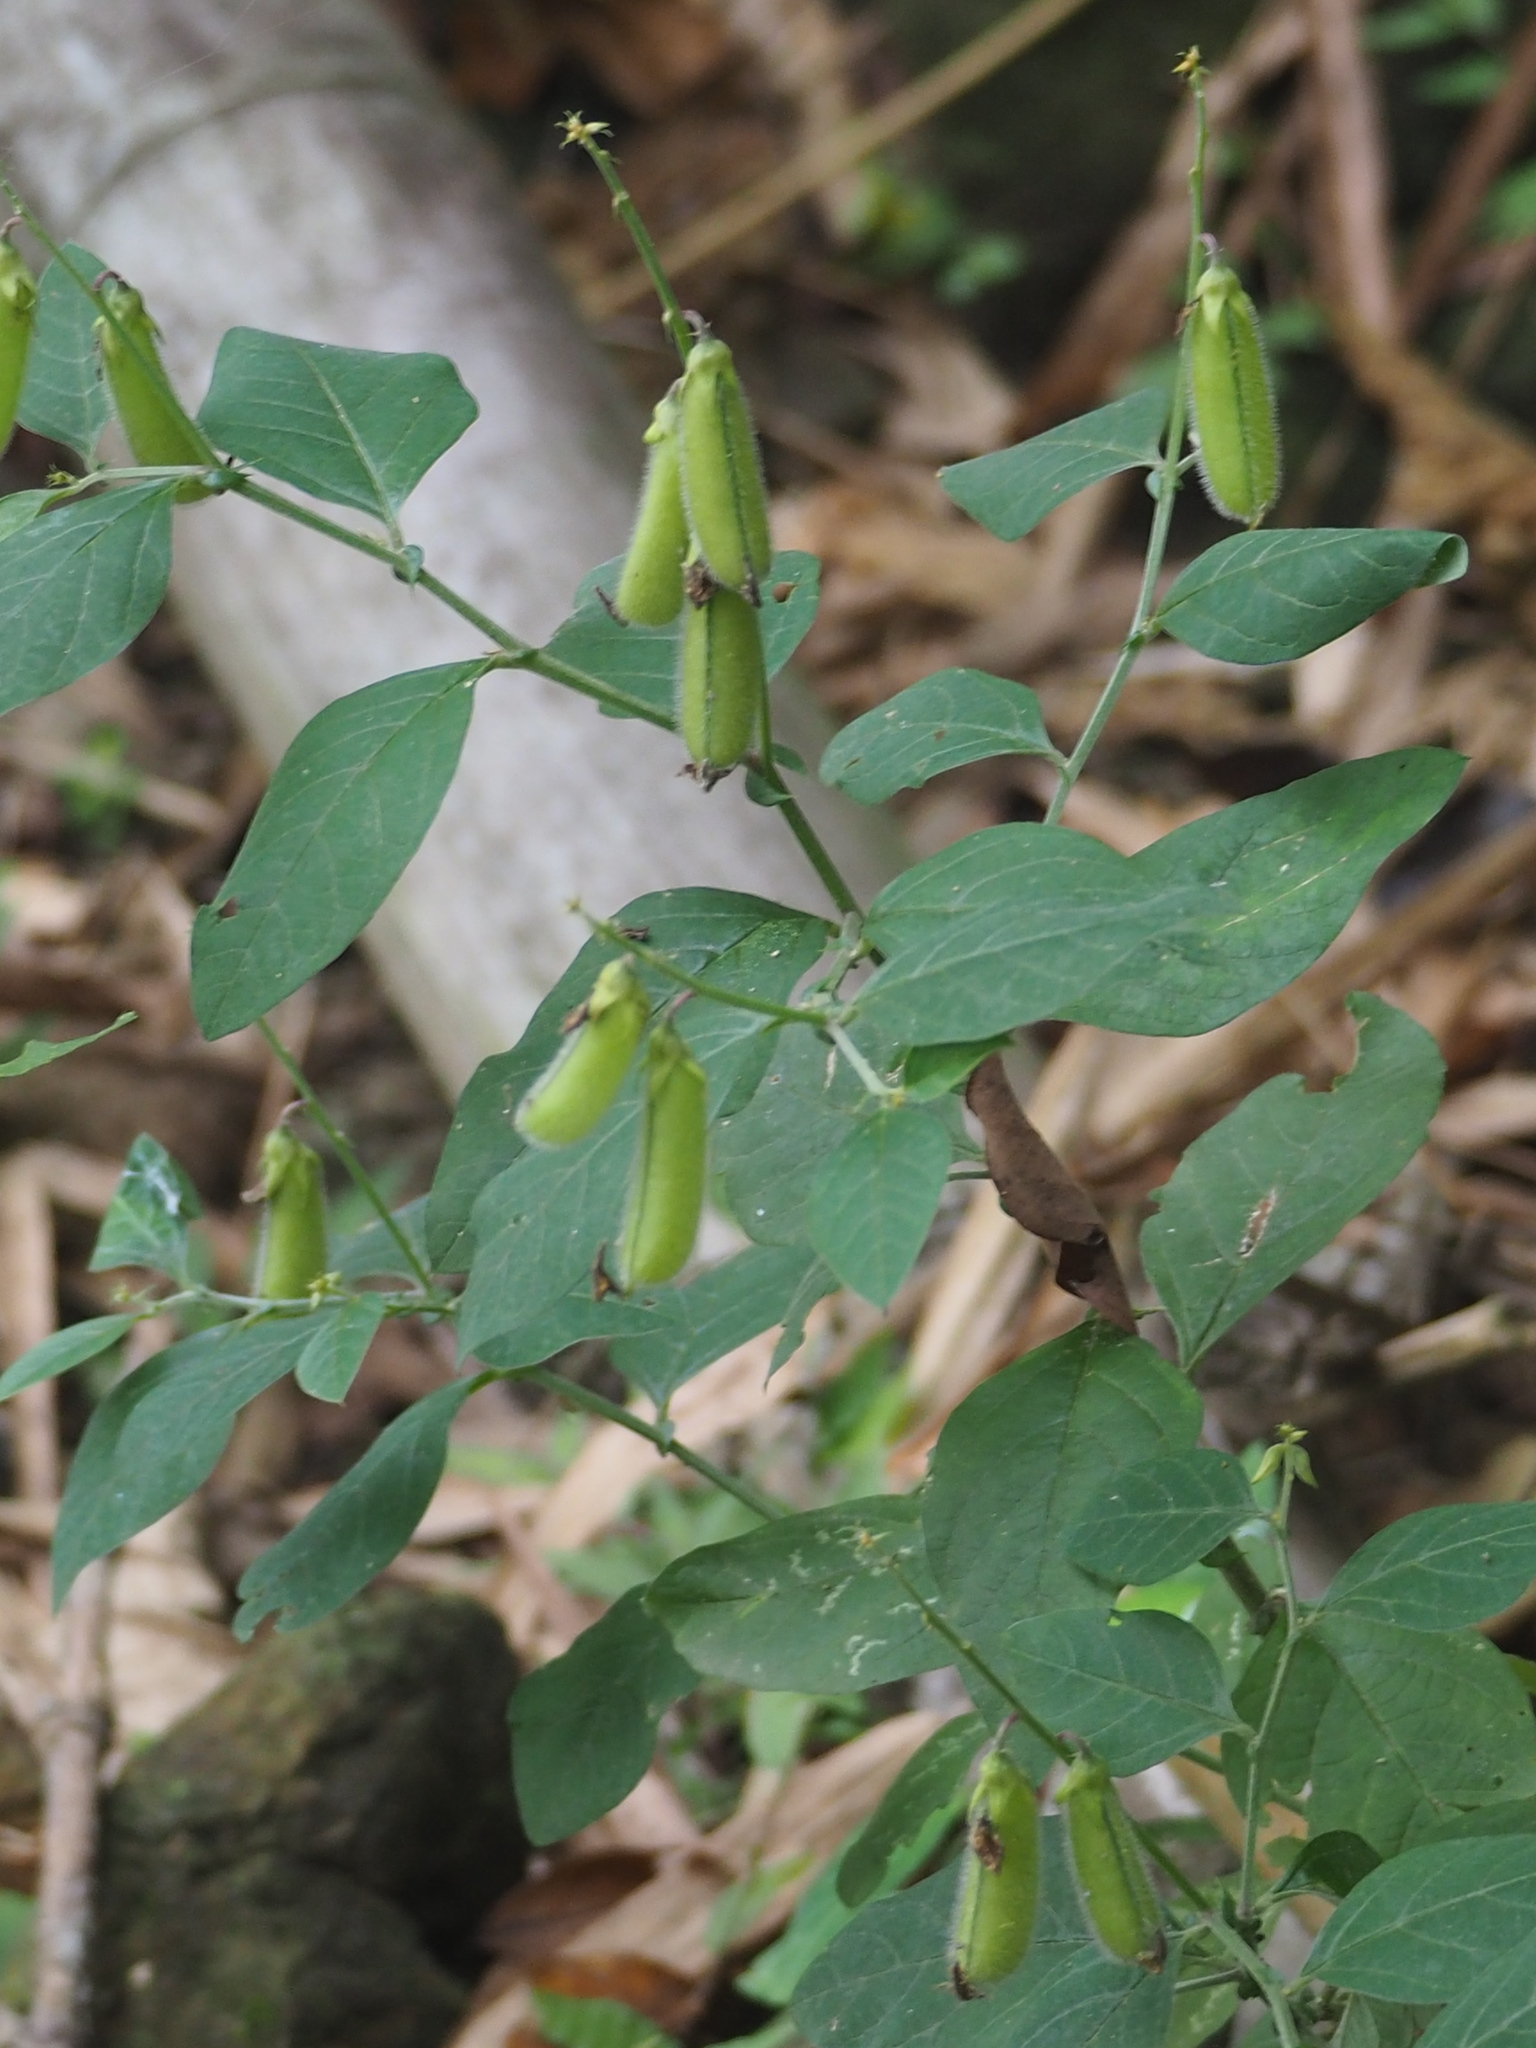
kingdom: Plantae
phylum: Tracheophyta
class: Magnoliopsida
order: Fabales
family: Fabaceae
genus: Crotalaria
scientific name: Crotalaria verrucosa
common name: Blue rattlesnake
